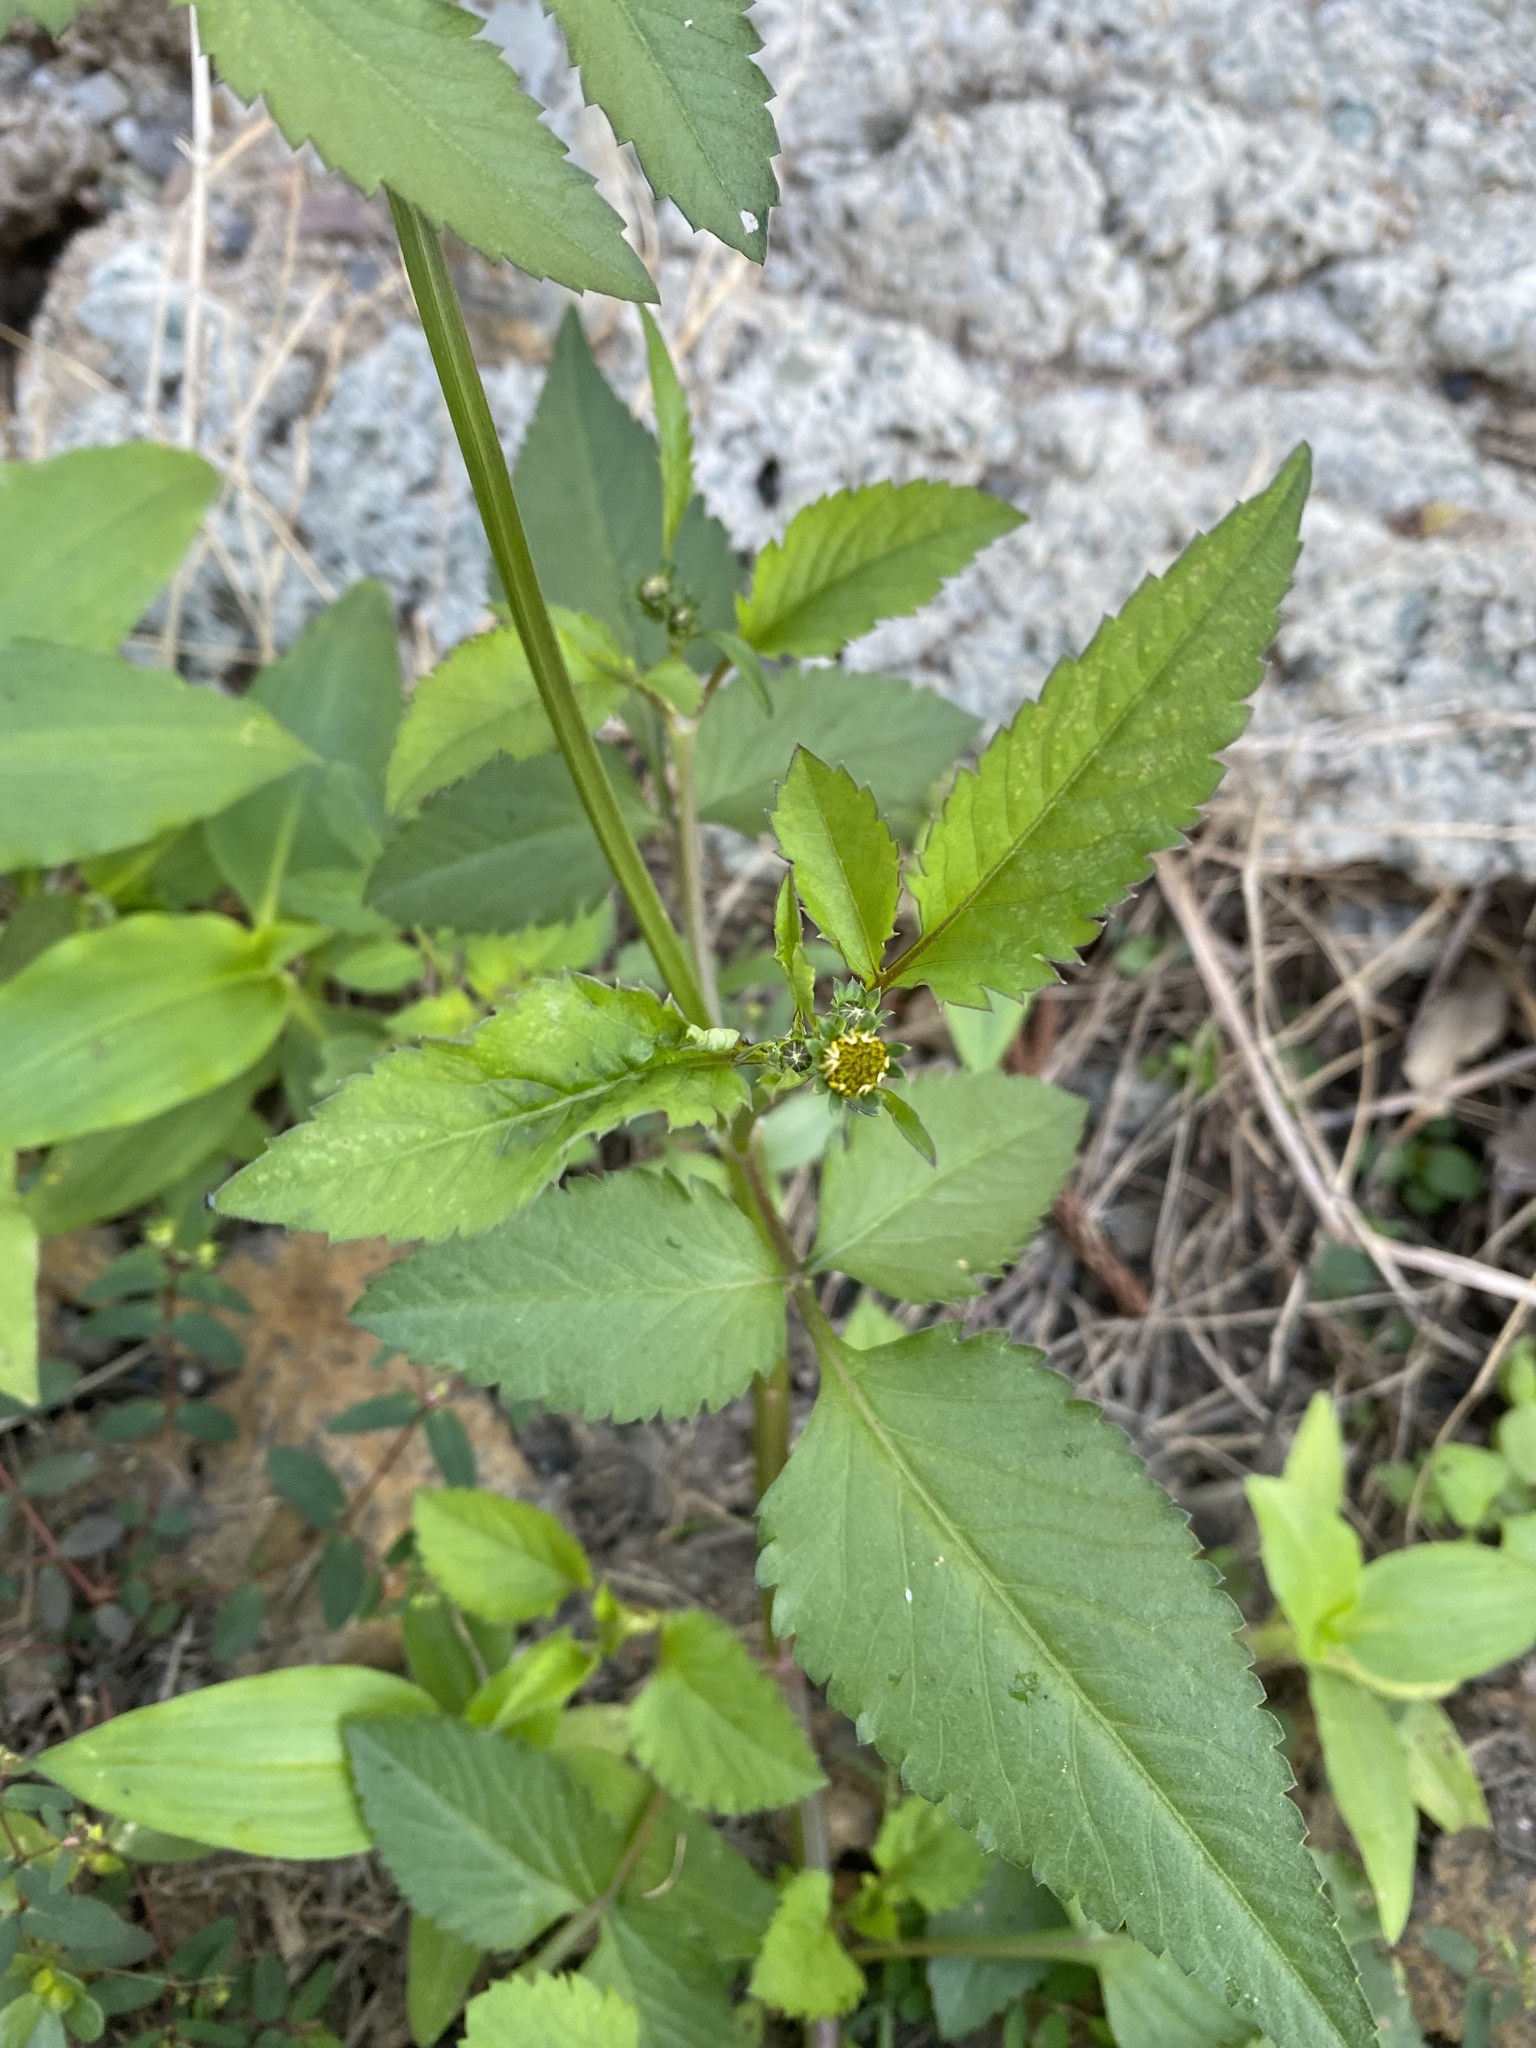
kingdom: Plantae
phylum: Tracheophyta
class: Magnoliopsida
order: Asterales
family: Asteraceae
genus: Bidens
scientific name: Bidens pilosa
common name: Black-jack
